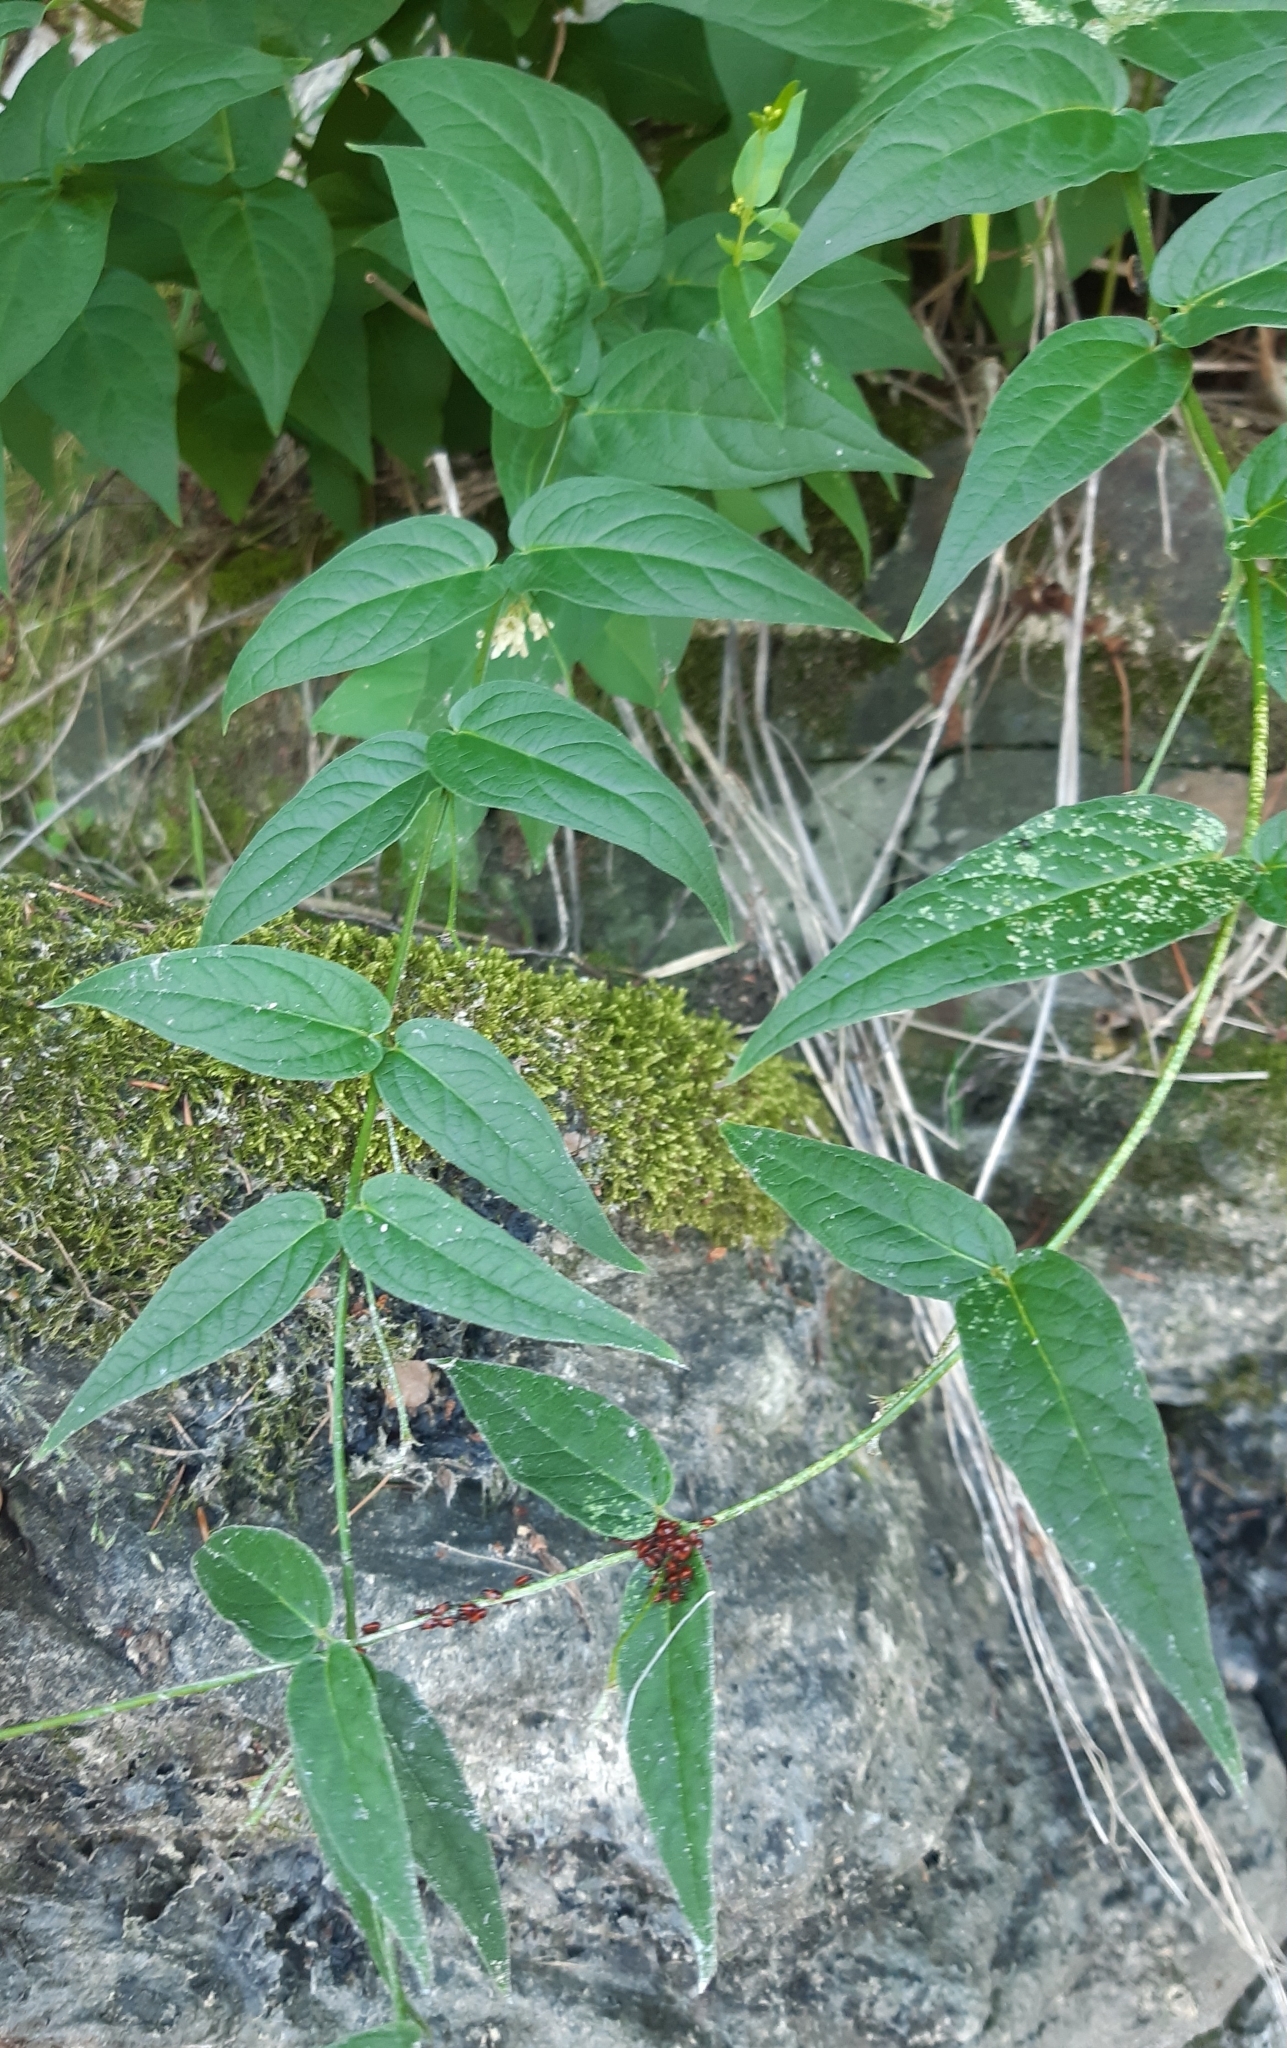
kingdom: Animalia
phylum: Arthropoda
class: Insecta
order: Hemiptera
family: Lygaeidae
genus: Tropidothorax
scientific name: Tropidothorax leucopterus
